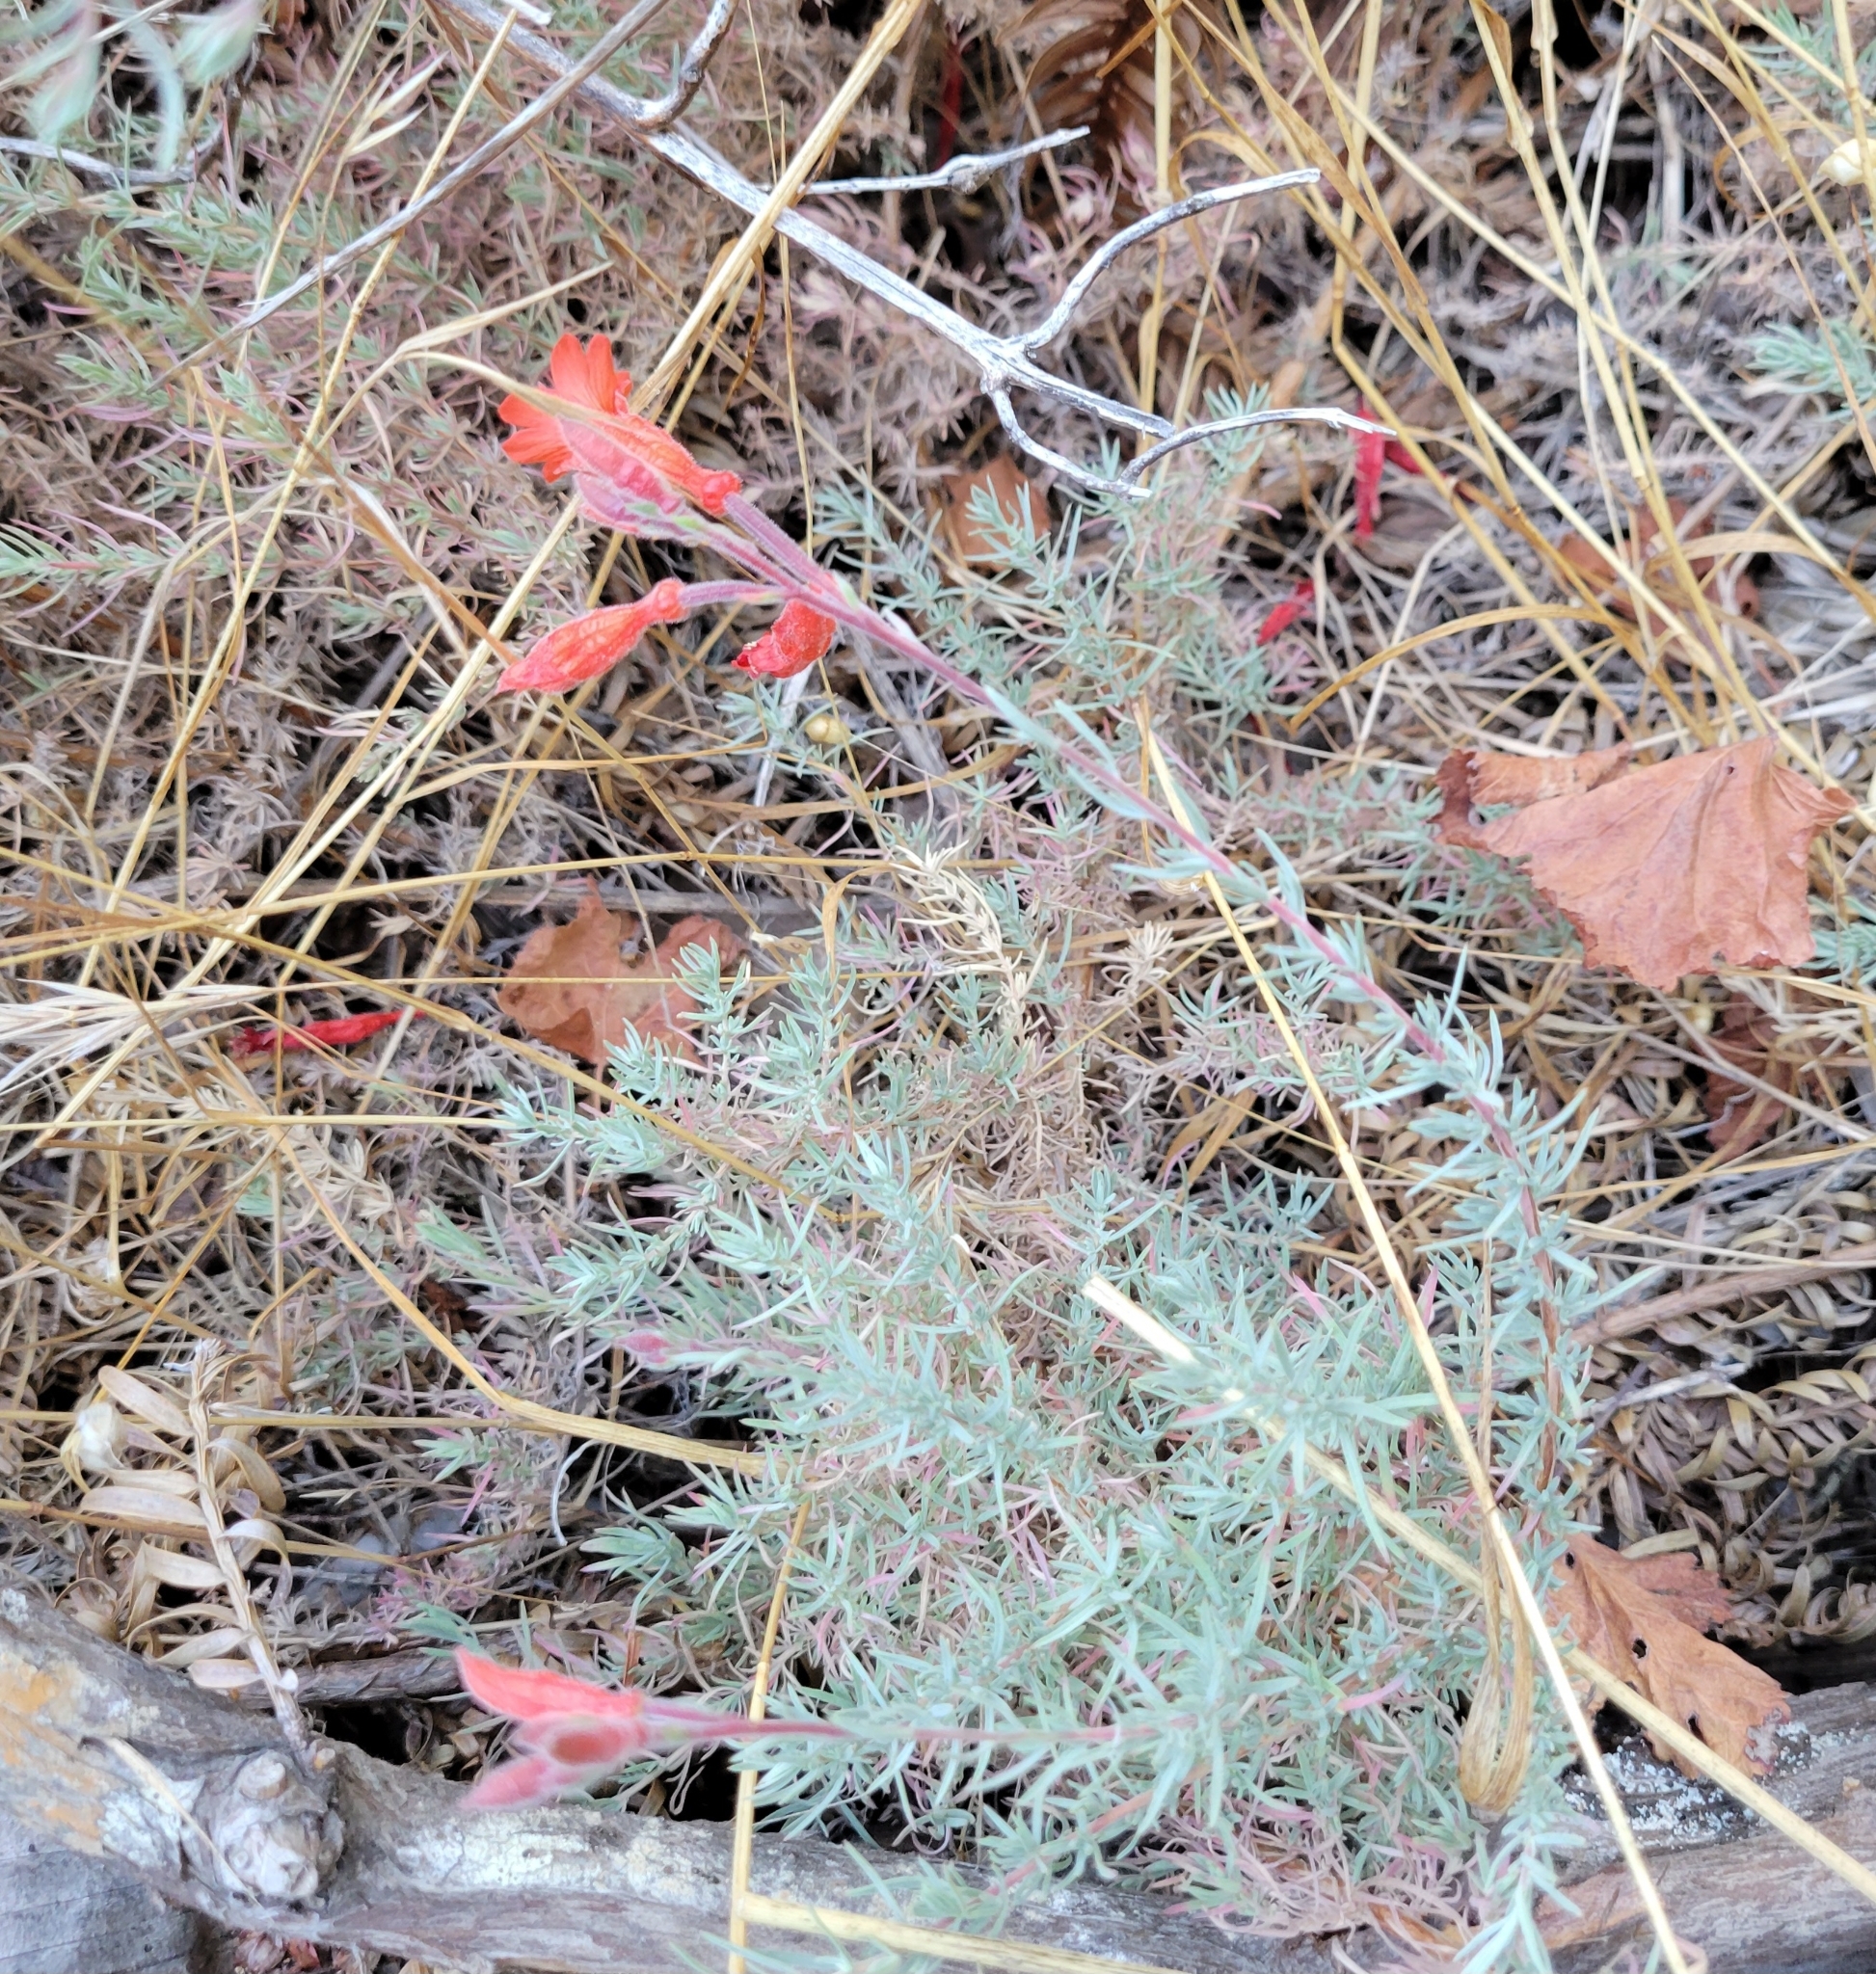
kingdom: Plantae
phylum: Tracheophyta
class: Magnoliopsida
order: Myrtales
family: Onagraceae
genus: Epilobium
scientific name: Epilobium canum
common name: California-fuchsia
